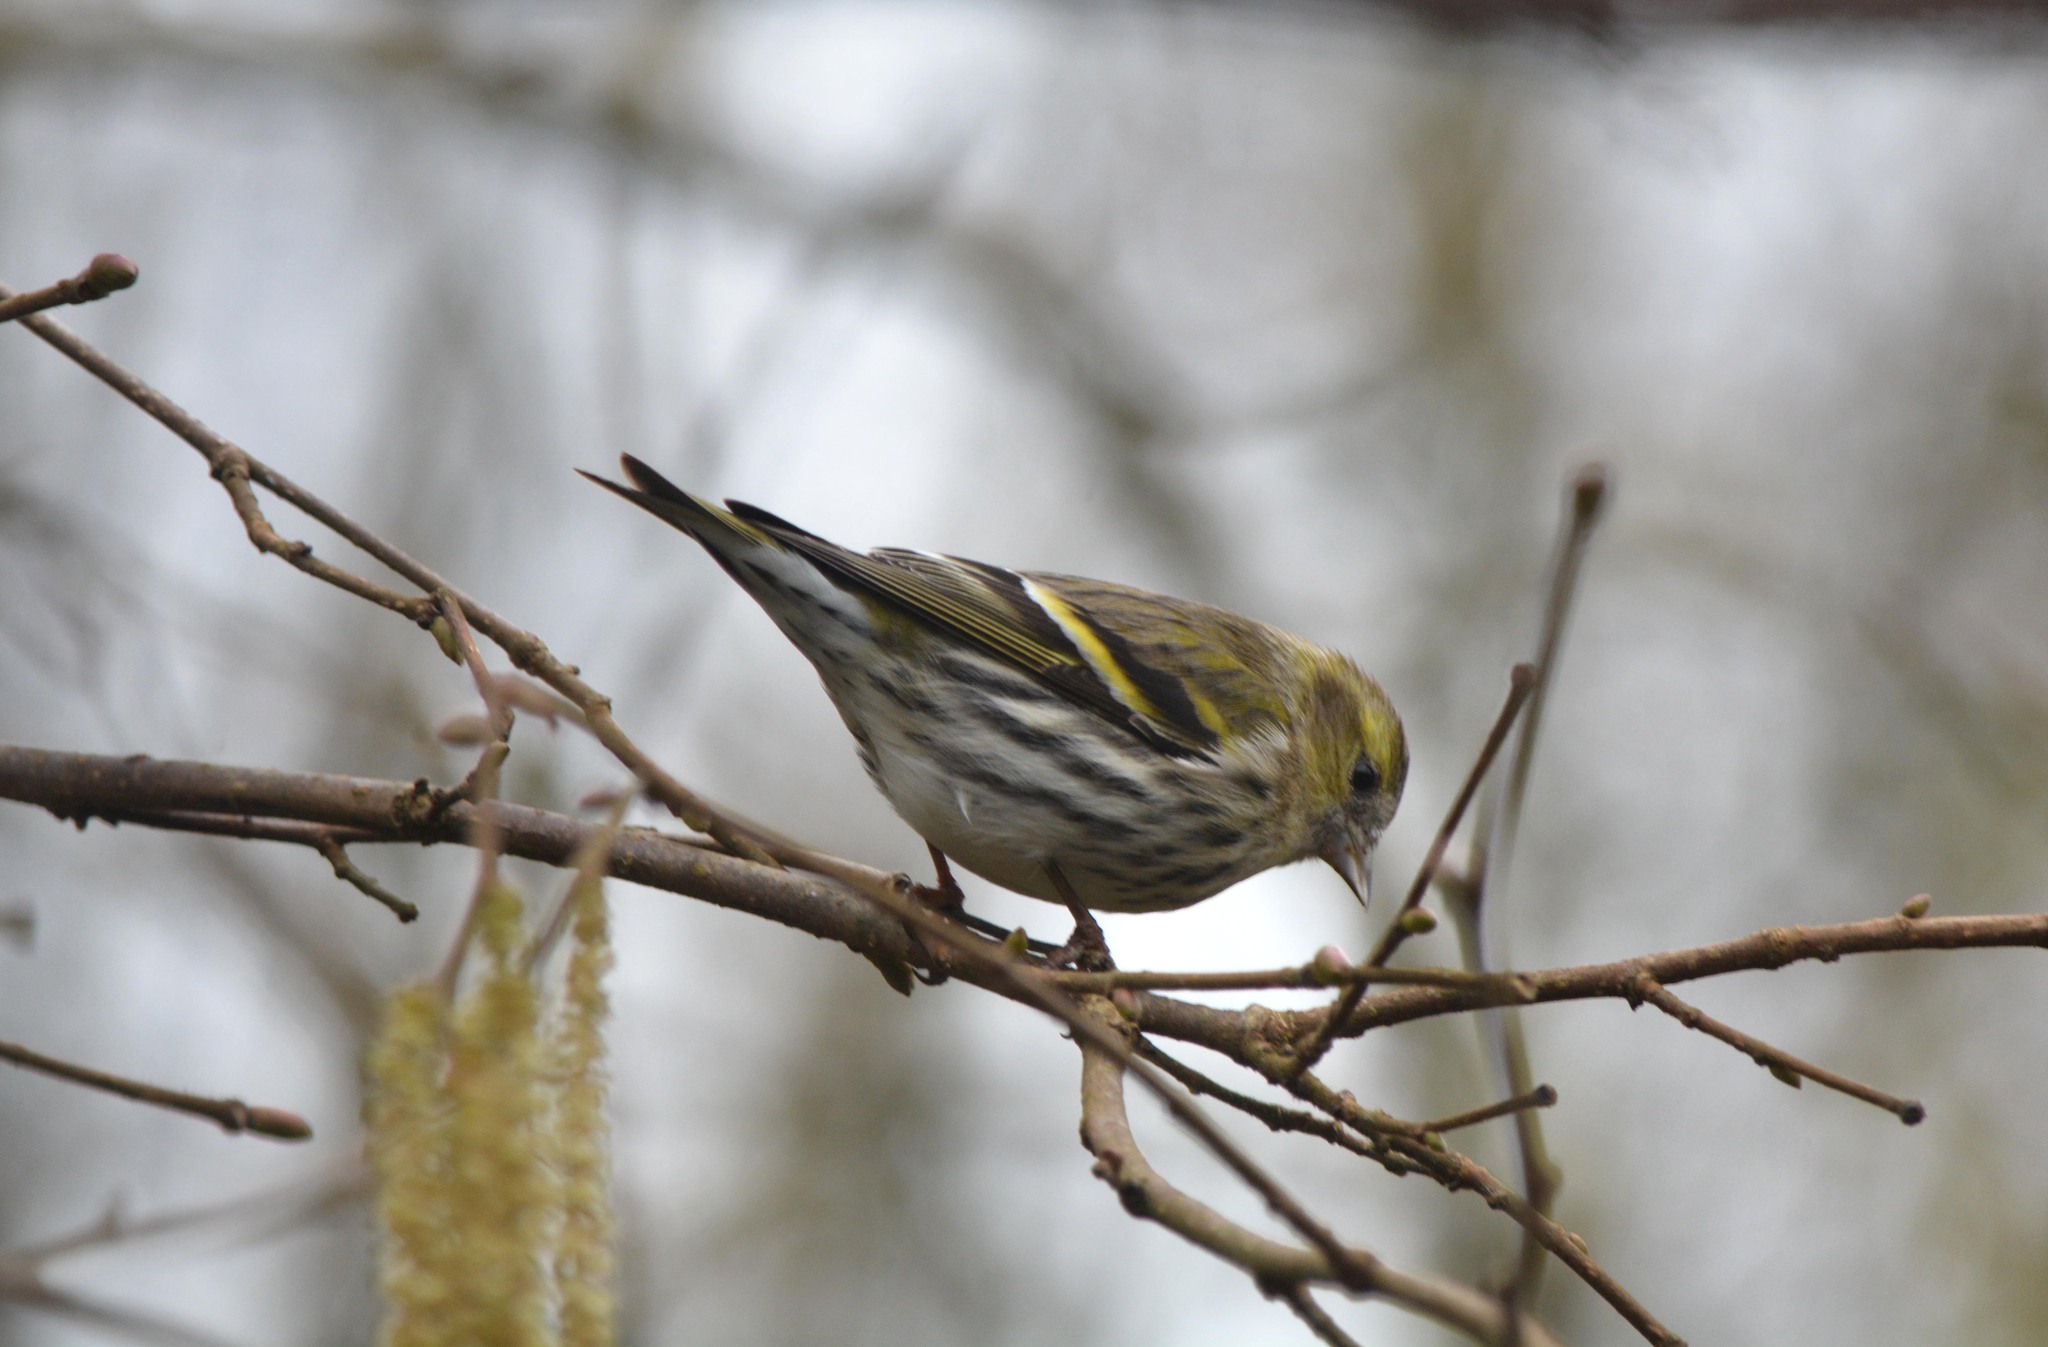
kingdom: Animalia
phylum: Chordata
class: Aves
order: Passeriformes
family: Fringillidae
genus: Spinus
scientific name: Spinus spinus
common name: Eurasian siskin
